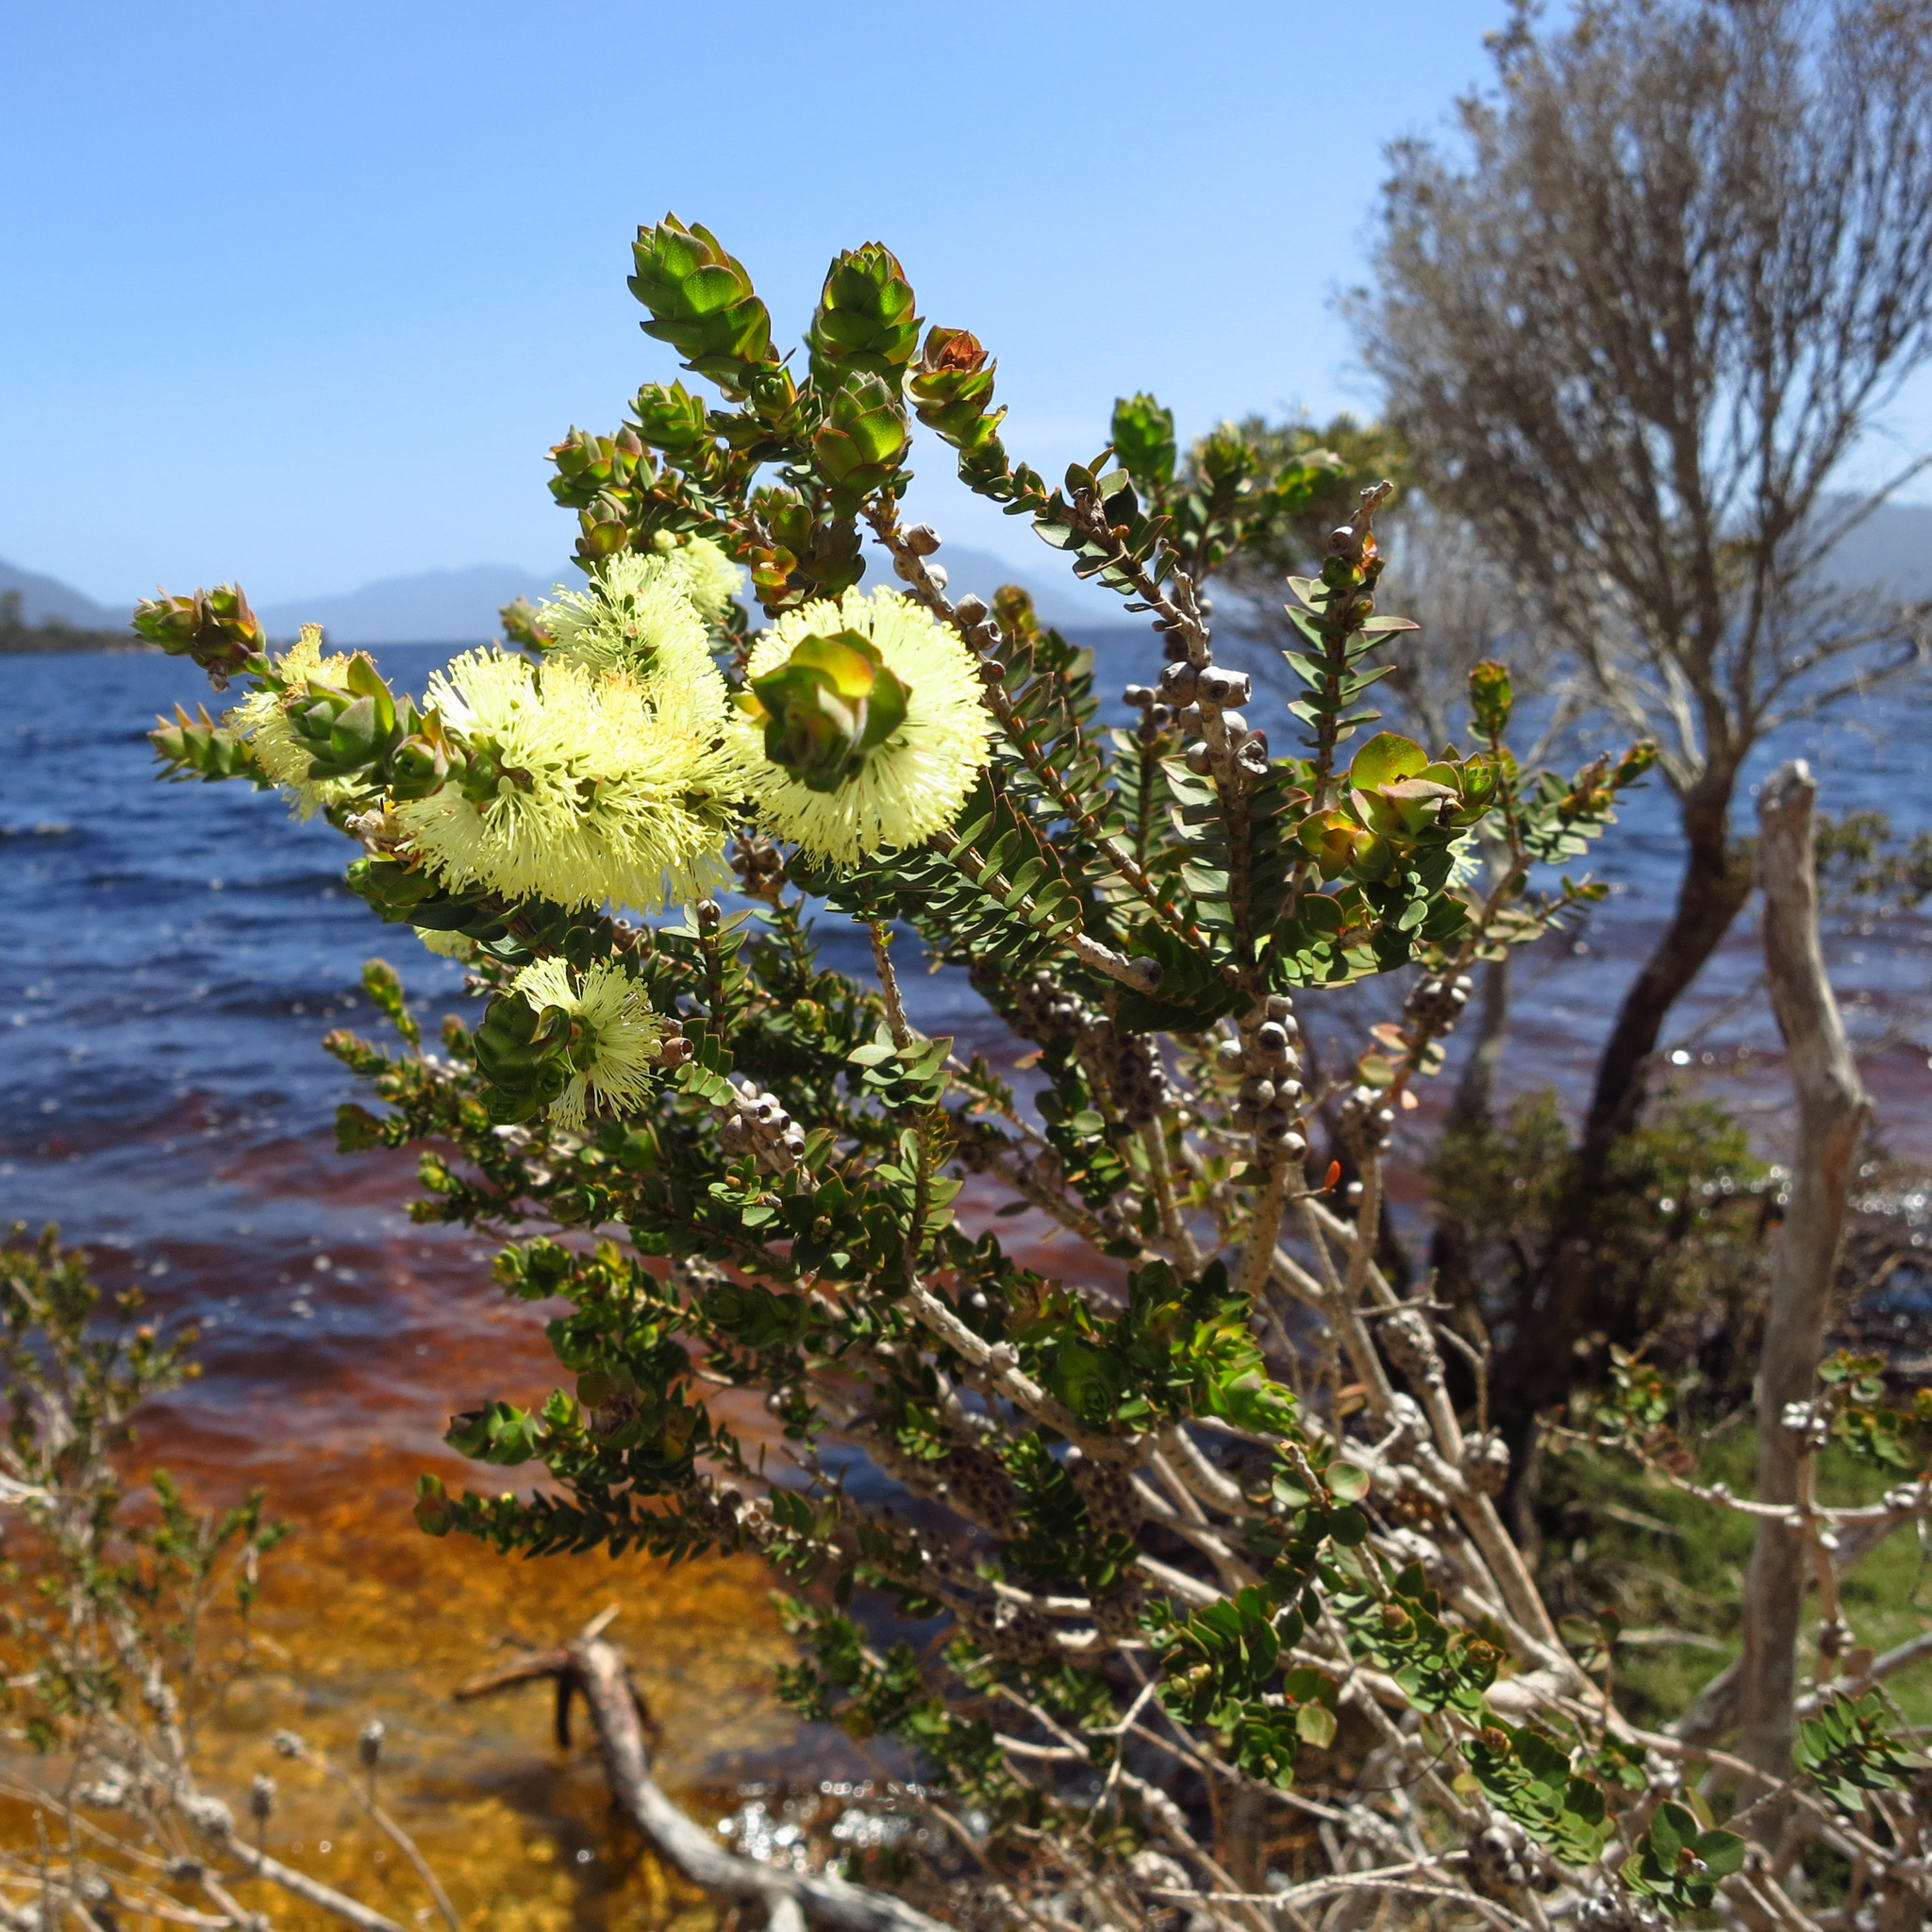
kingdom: Plantae
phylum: Tracheophyta
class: Magnoliopsida
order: Myrtales
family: Myrtaceae
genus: Melaleuca
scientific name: Melaleuca squarrosa
